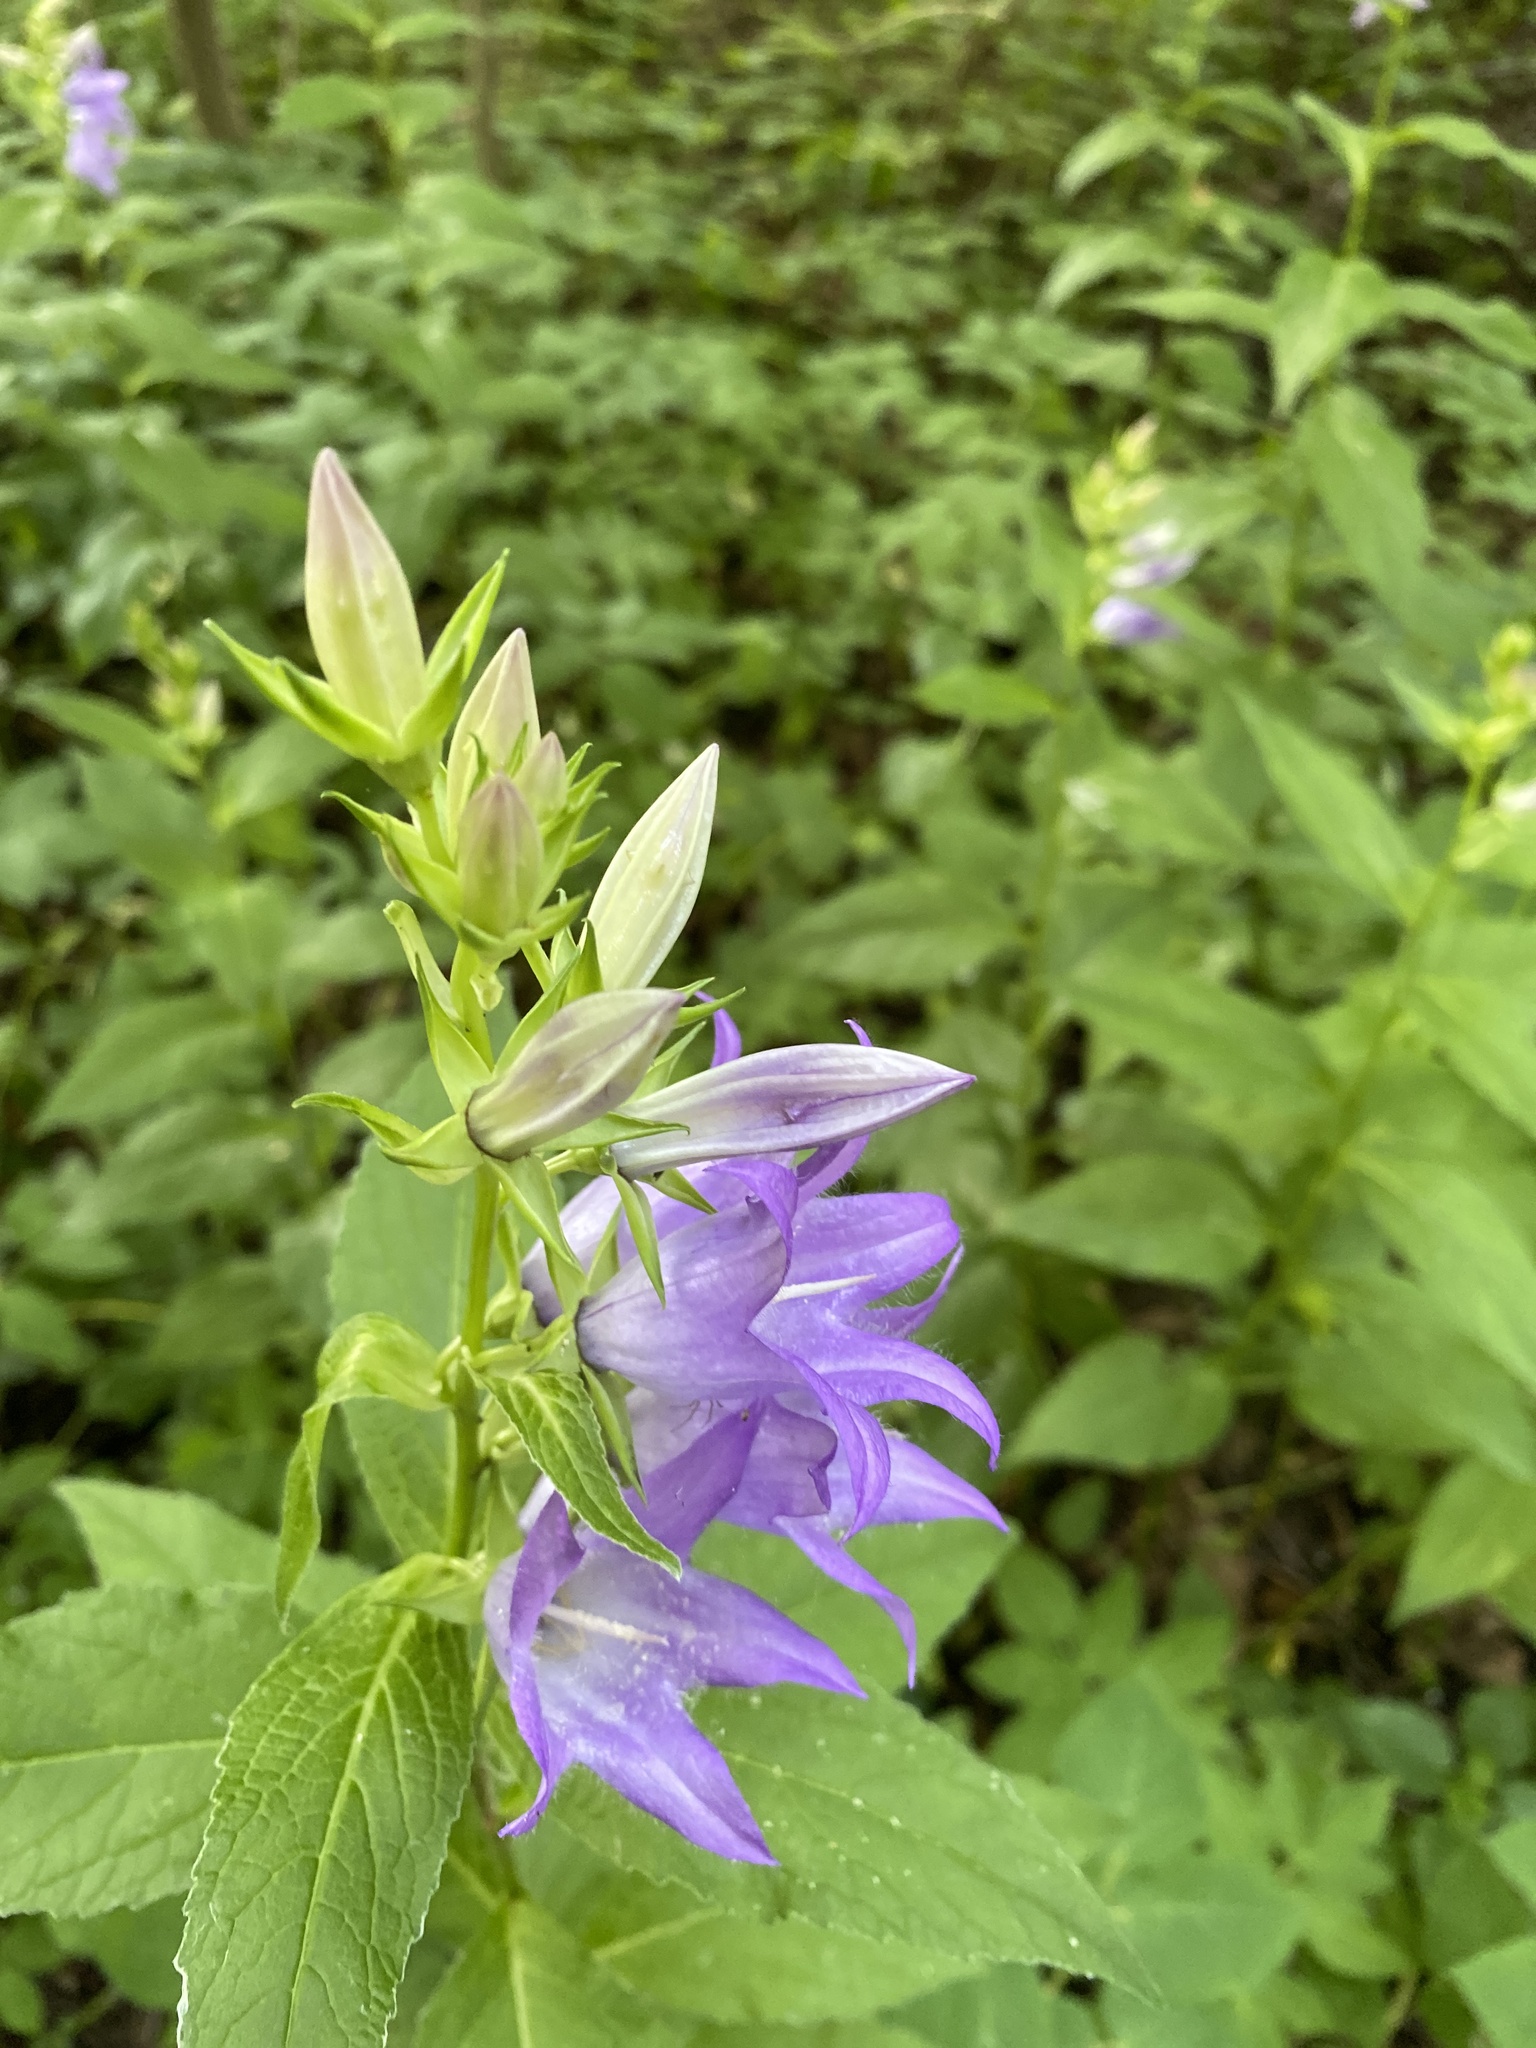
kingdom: Plantae
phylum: Tracheophyta
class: Magnoliopsida
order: Asterales
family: Campanulaceae
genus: Campanula
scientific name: Campanula latifolia
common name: Giant bellflower
